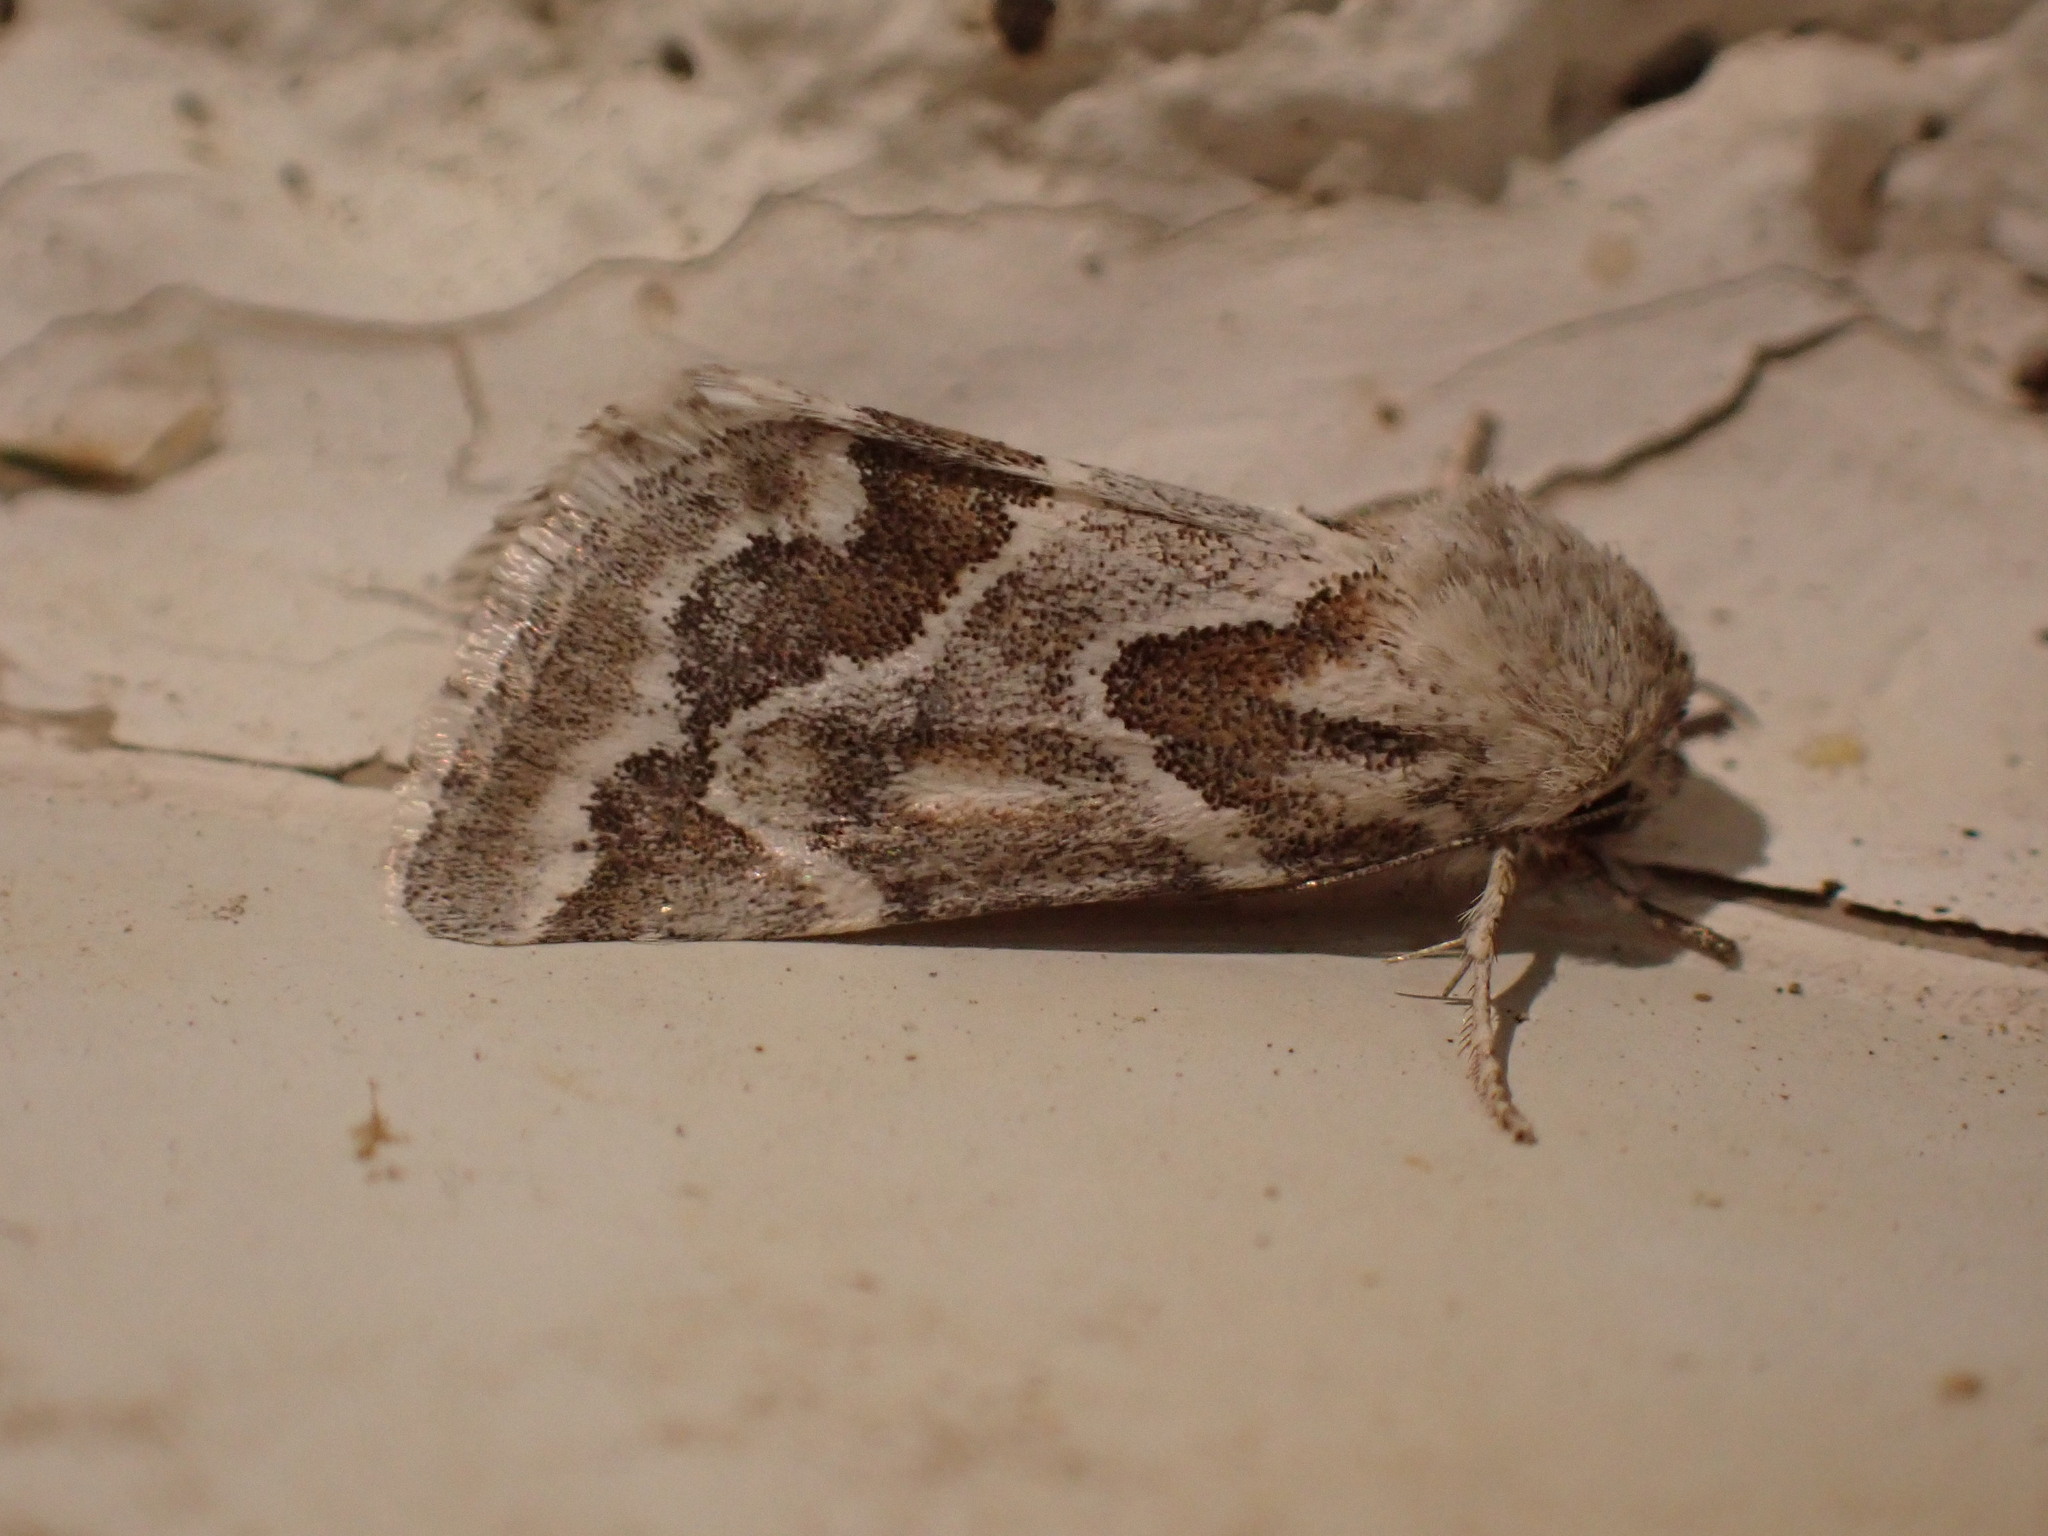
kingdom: Animalia
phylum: Arthropoda
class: Insecta
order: Lepidoptera
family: Noctuidae
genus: Schinia
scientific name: Schinia acutilinea
